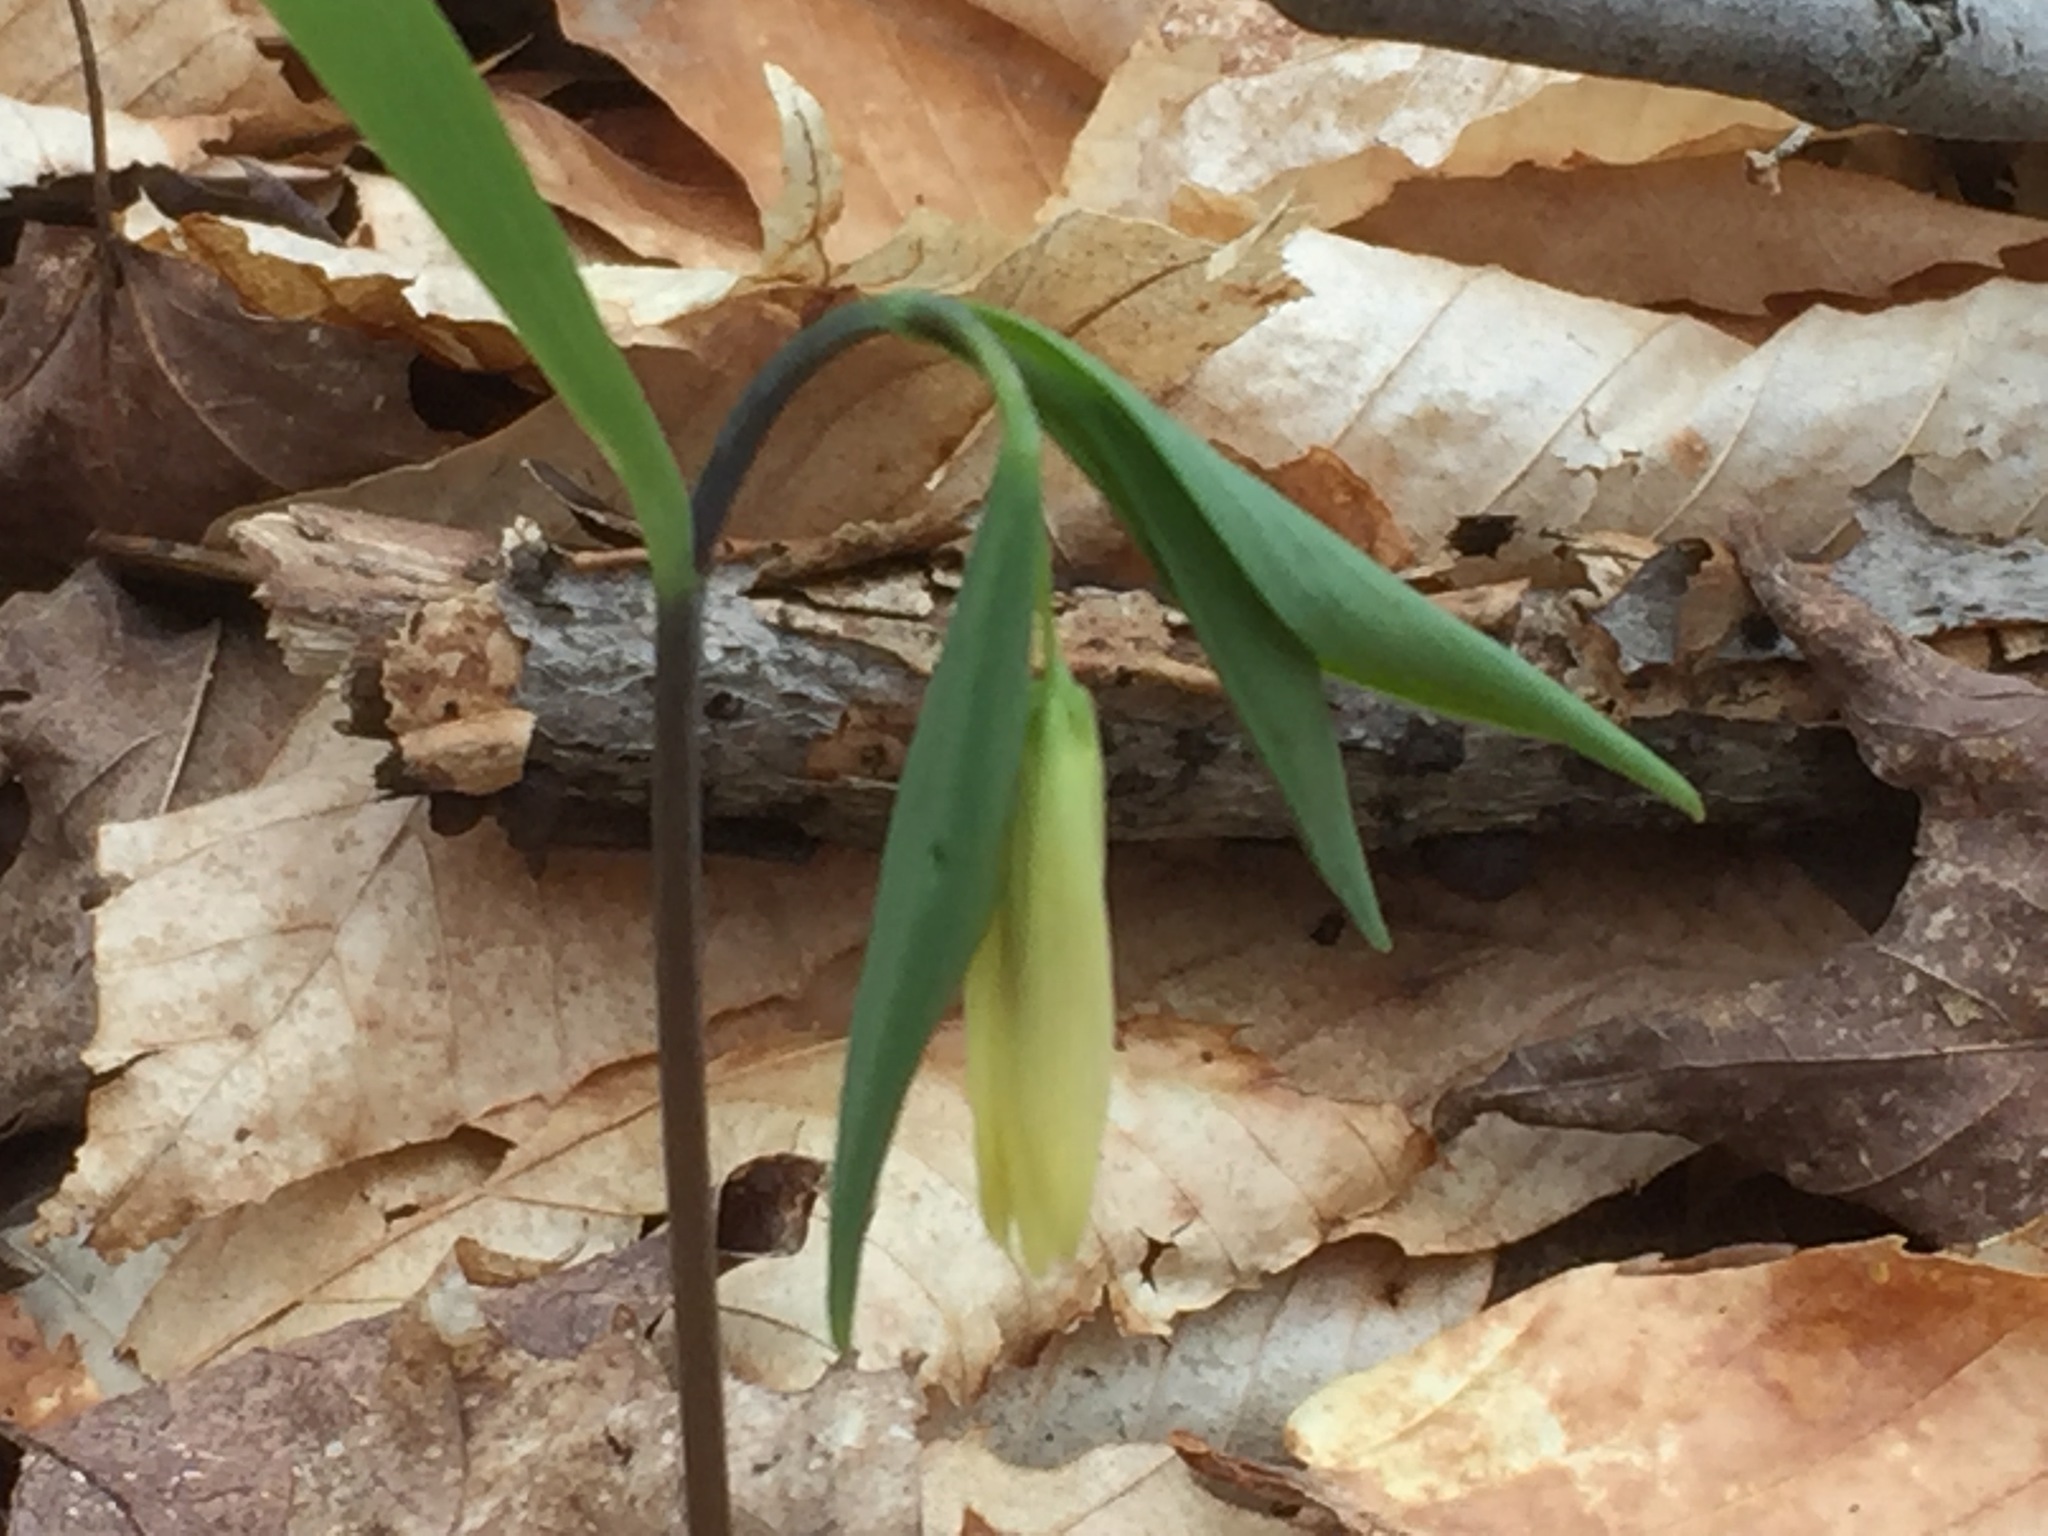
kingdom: Plantae
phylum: Tracheophyta
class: Liliopsida
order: Liliales
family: Colchicaceae
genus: Uvularia
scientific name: Uvularia sessilifolia
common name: Straw-lily
